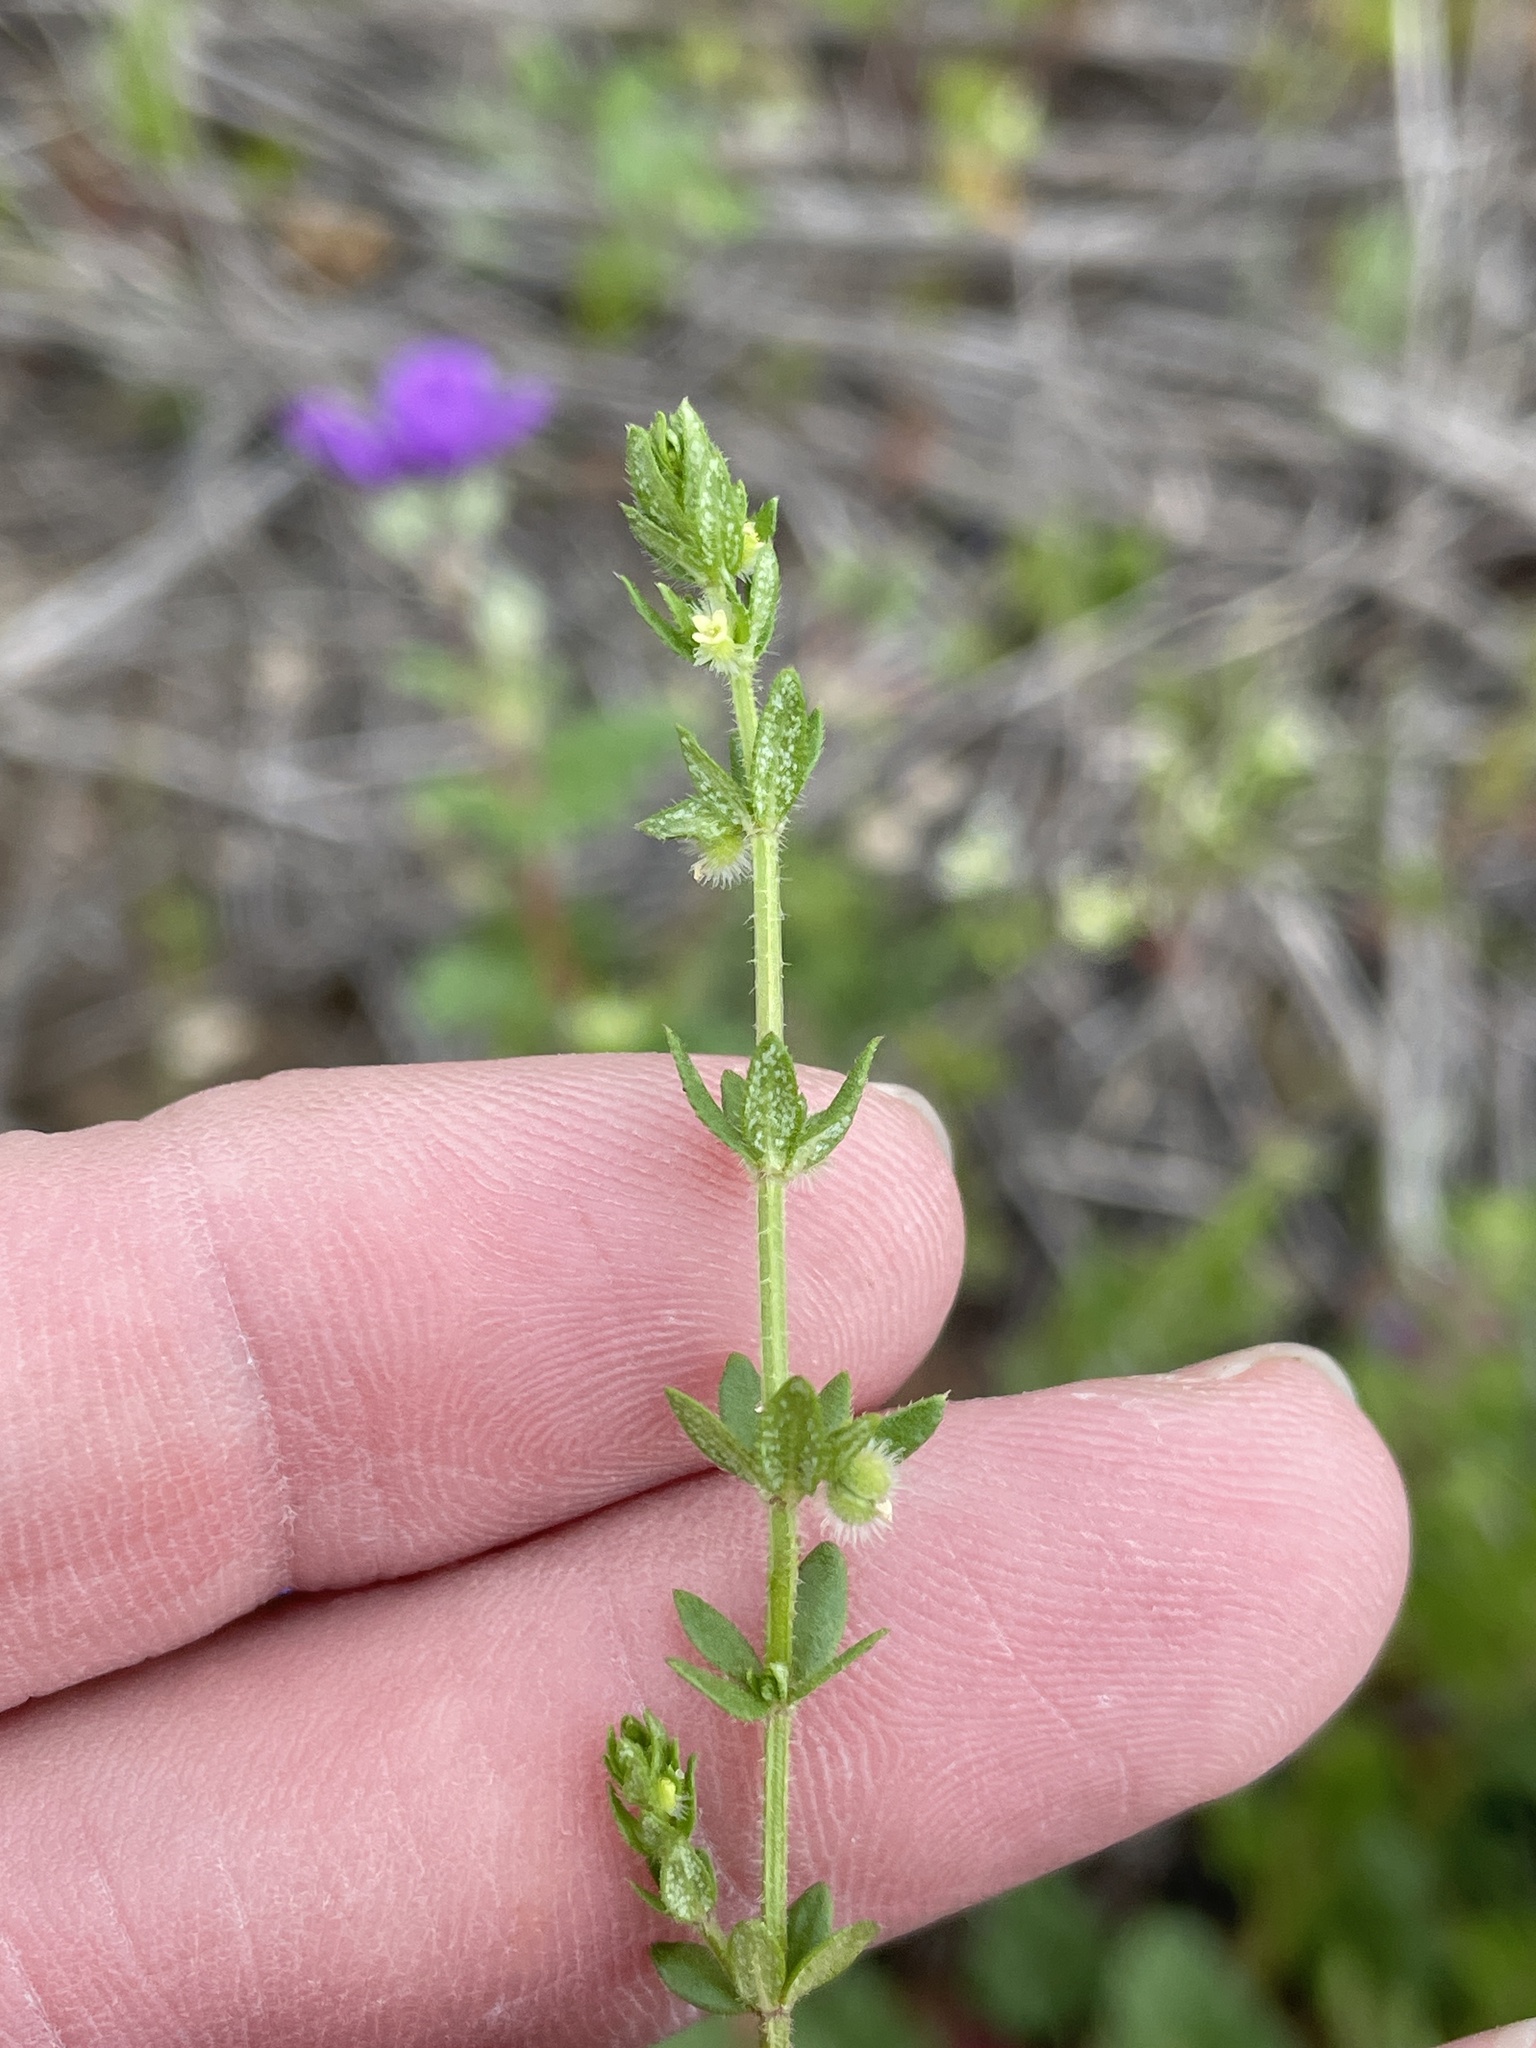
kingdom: Plantae
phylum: Tracheophyta
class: Magnoliopsida
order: Gentianales
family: Rubiaceae
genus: Galium
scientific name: Galium virgatum
